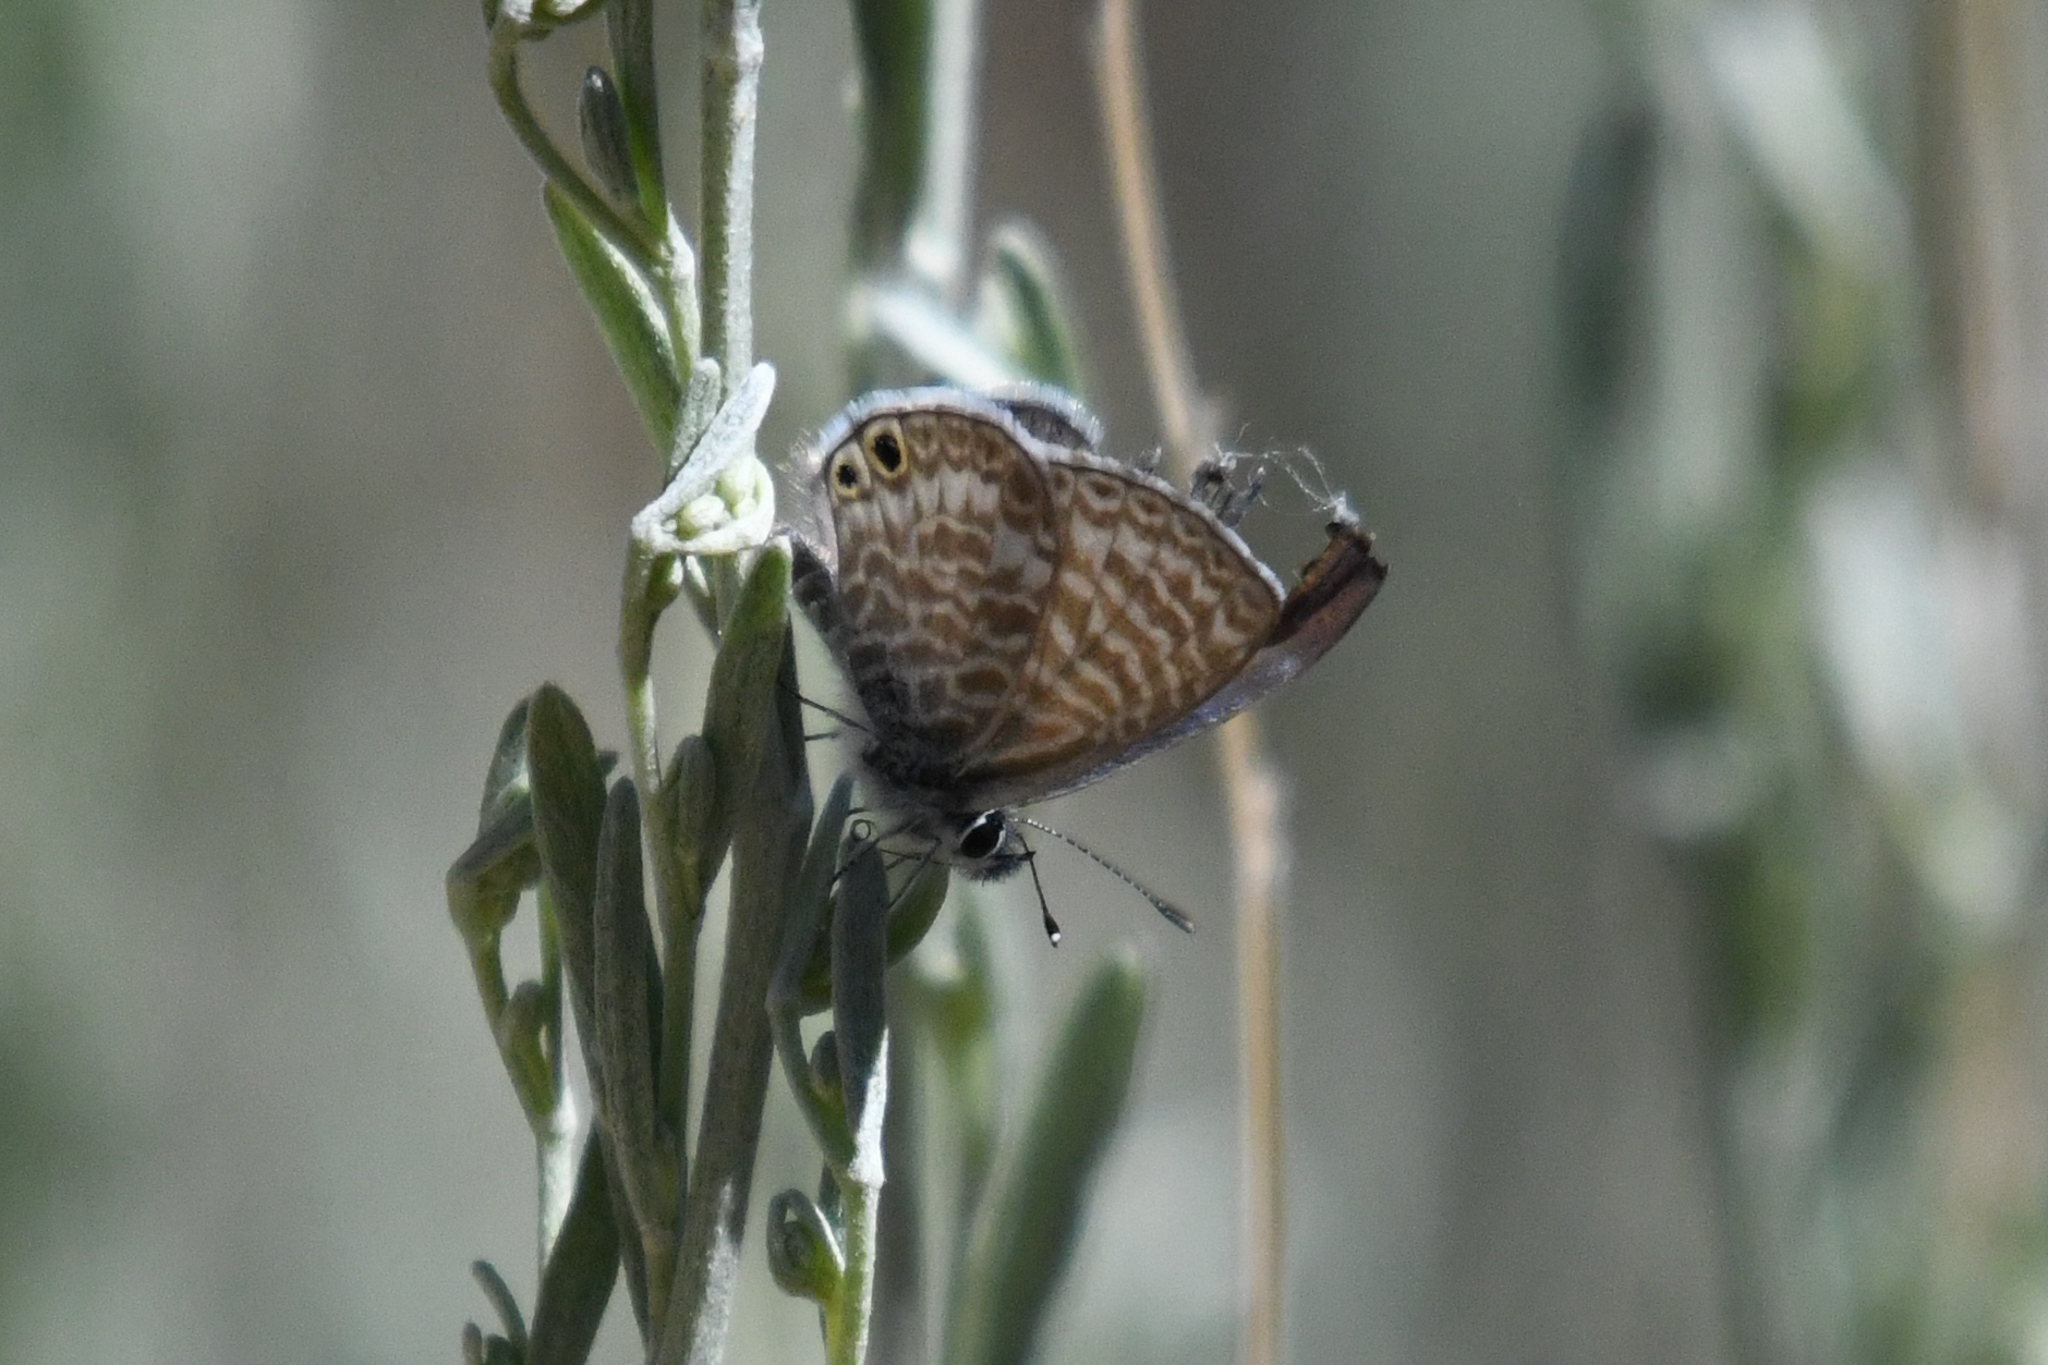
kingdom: Animalia
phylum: Arthropoda
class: Insecta
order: Lepidoptera
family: Lycaenidae
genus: Leptotes
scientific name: Leptotes marina
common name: Marine blue
